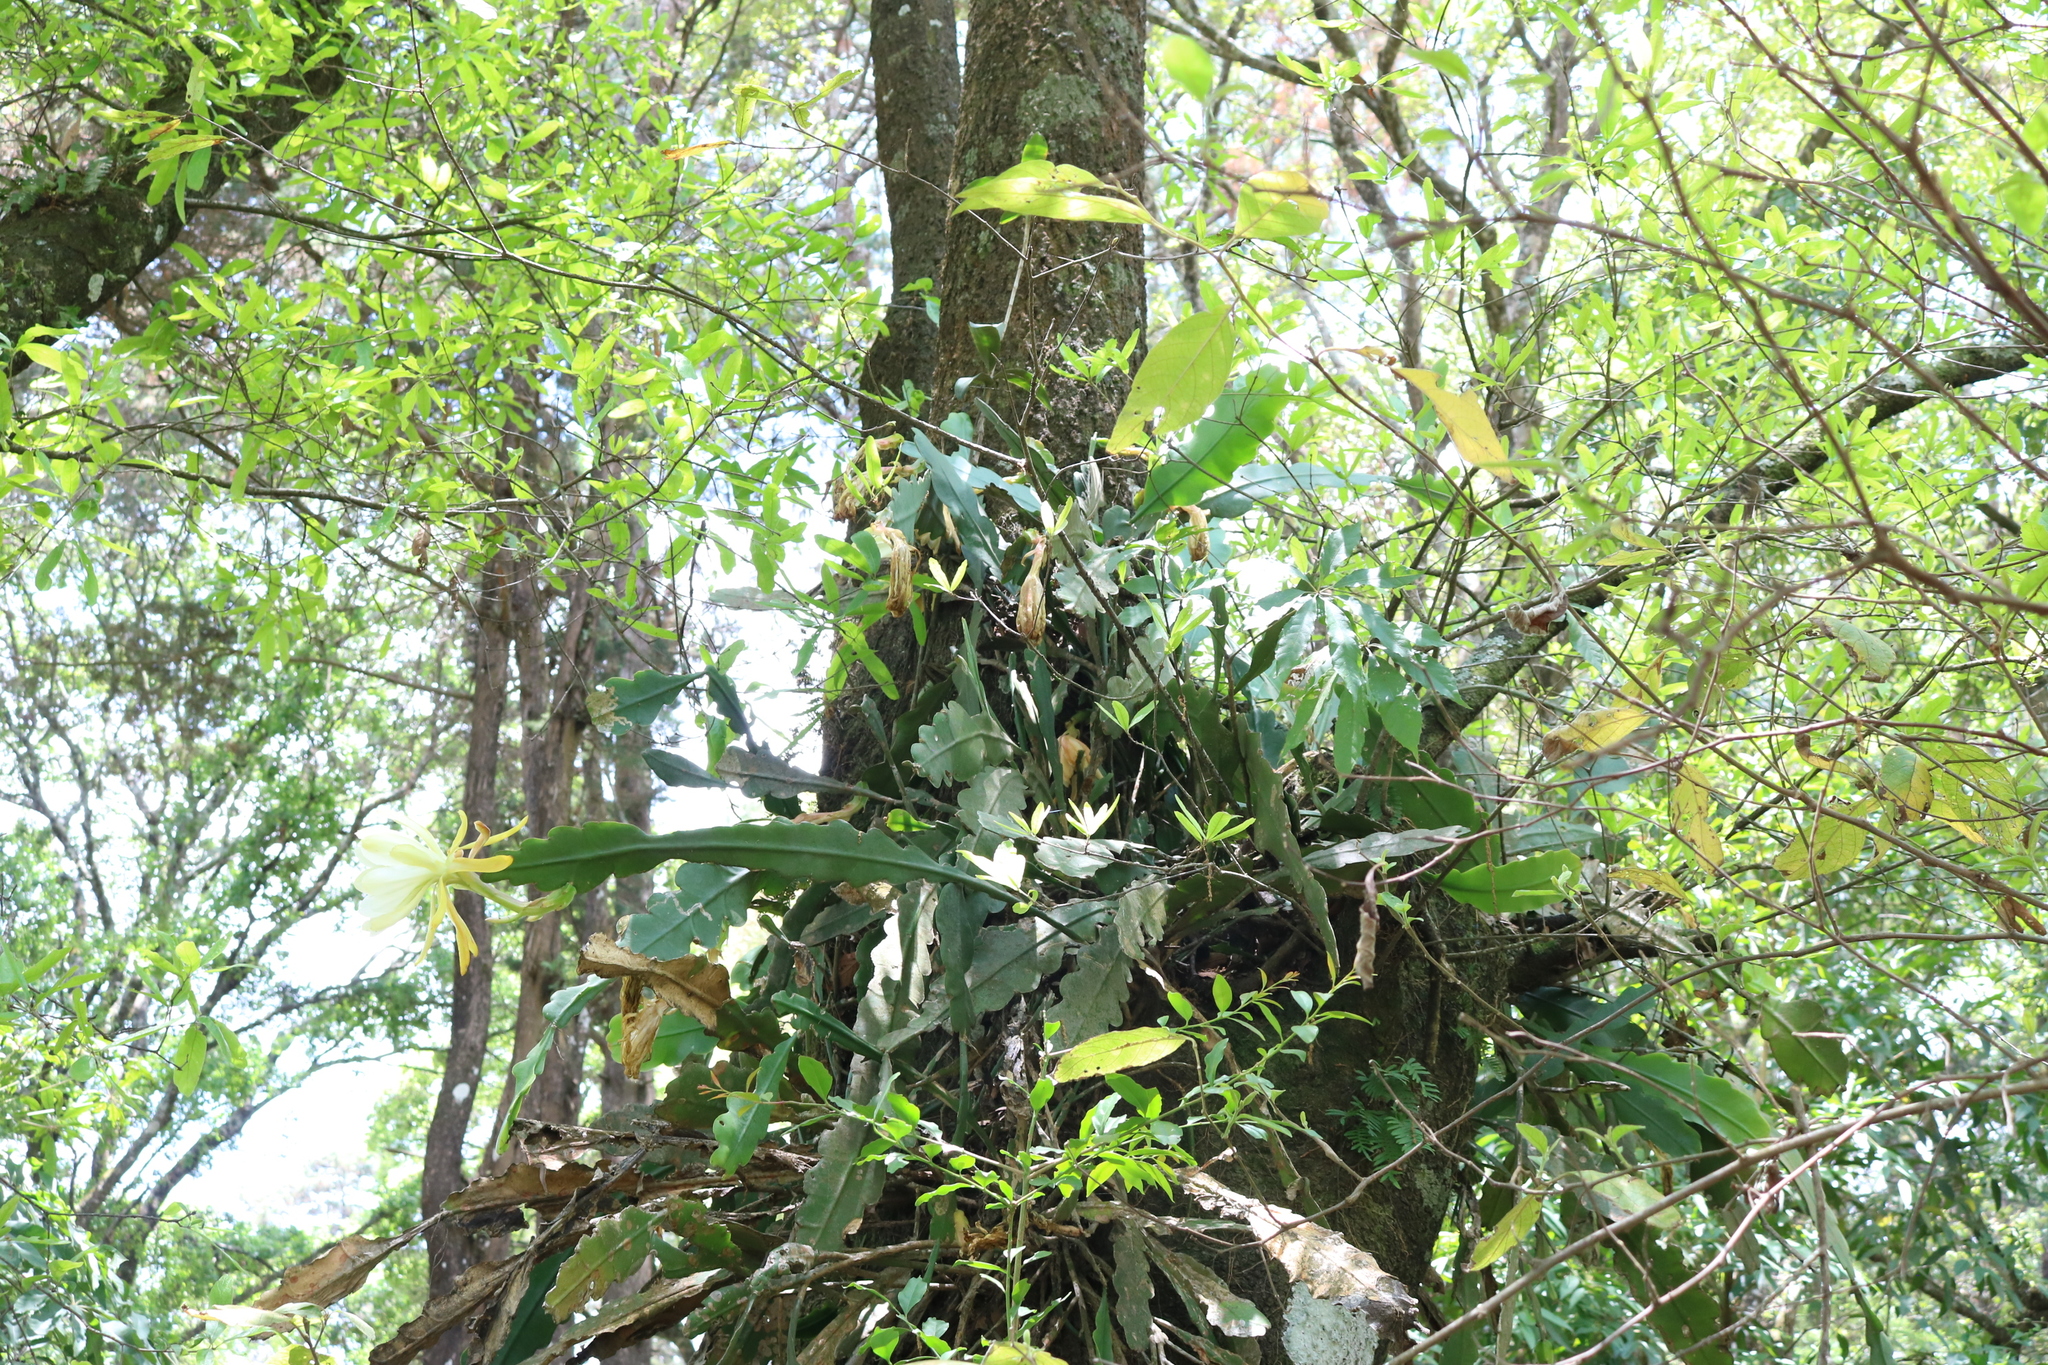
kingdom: Plantae
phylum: Tracheophyta
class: Magnoliopsida
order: Caryophyllales
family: Cactaceae
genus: Disocactus
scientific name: Disocactus crenatus
